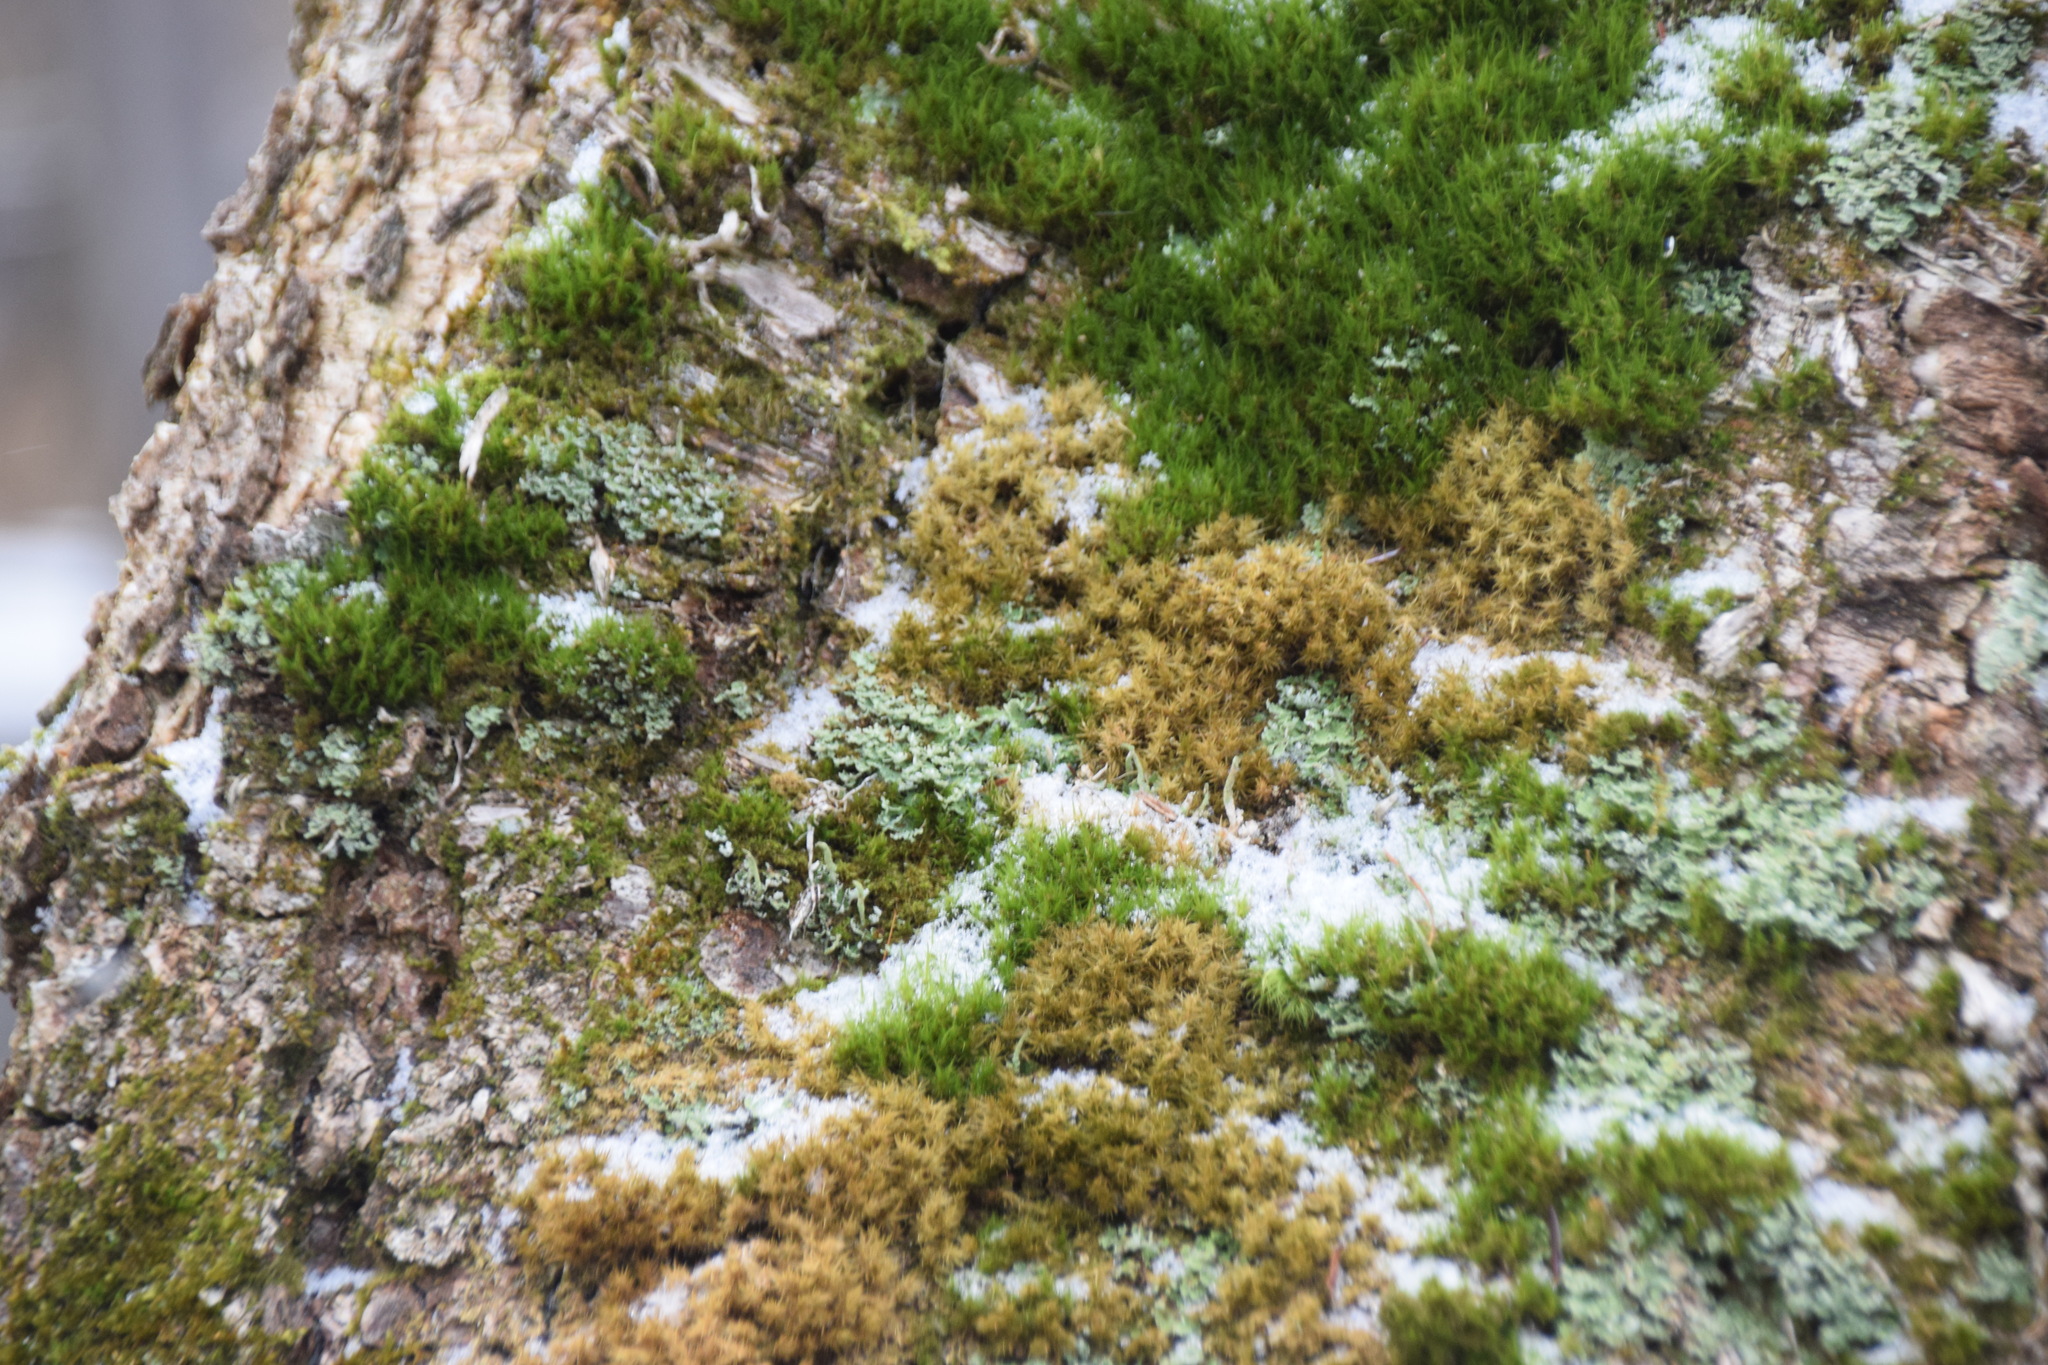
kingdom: Plantae
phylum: Bryophyta
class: Bryopsida
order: Dicranales
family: Dicranaceae
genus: Orthodicranum
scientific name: Orthodicranum flagellare
